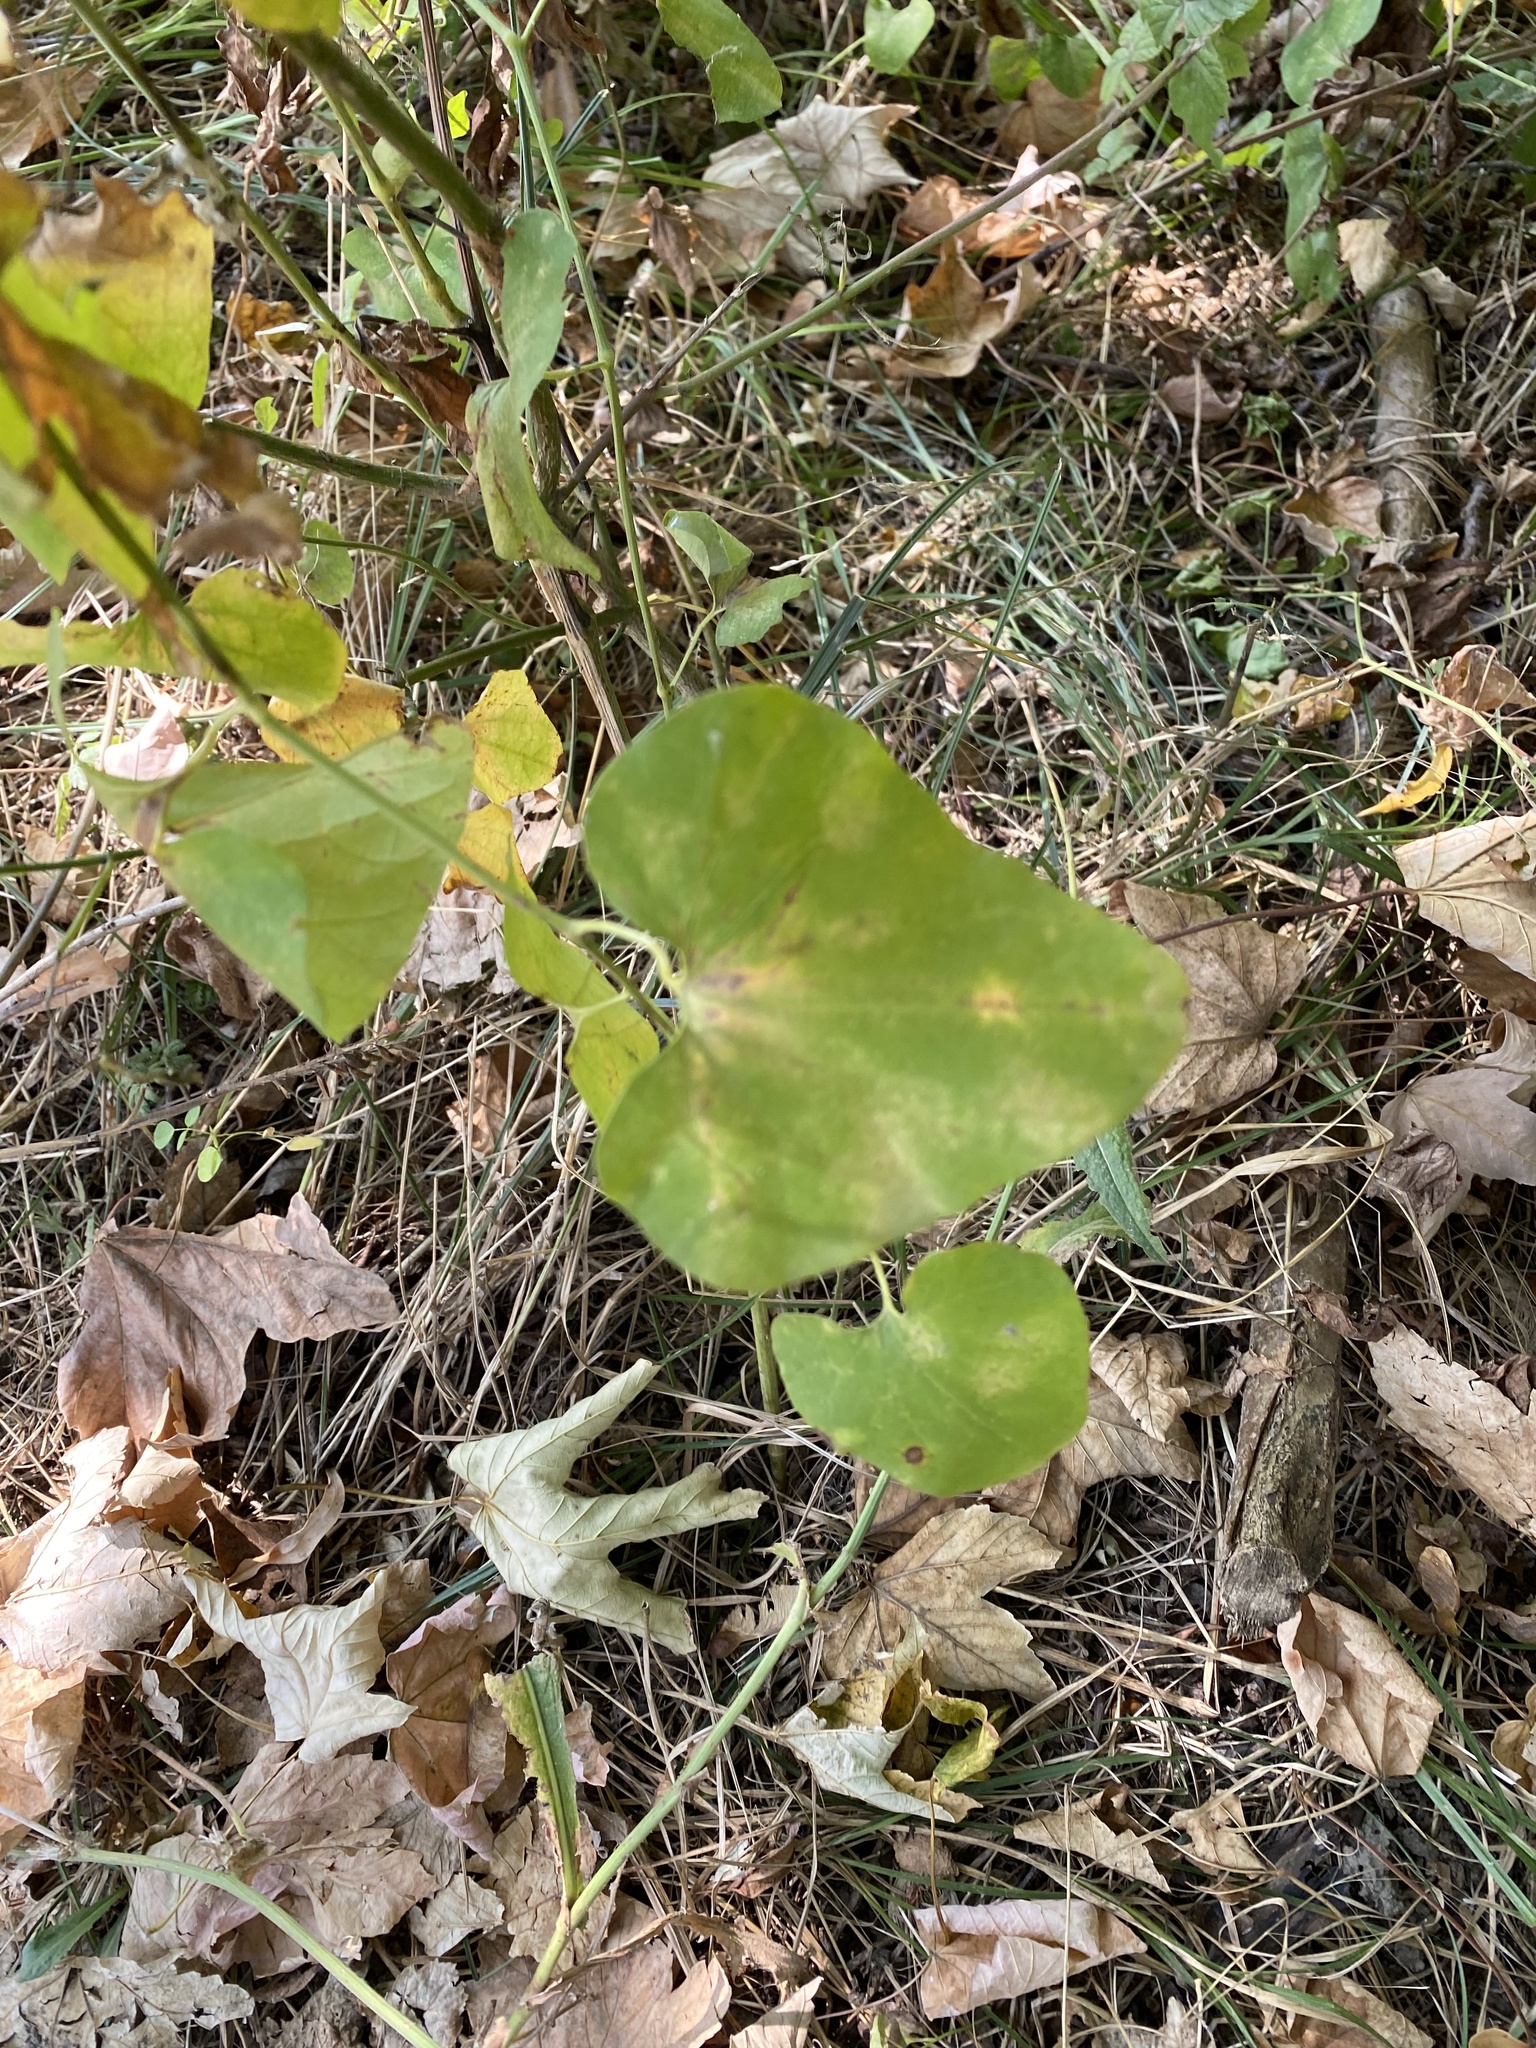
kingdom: Plantae
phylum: Tracheophyta
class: Magnoliopsida
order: Piperales
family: Aristolochiaceae
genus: Aristolochia
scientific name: Aristolochia clematitis
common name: Birthwort
